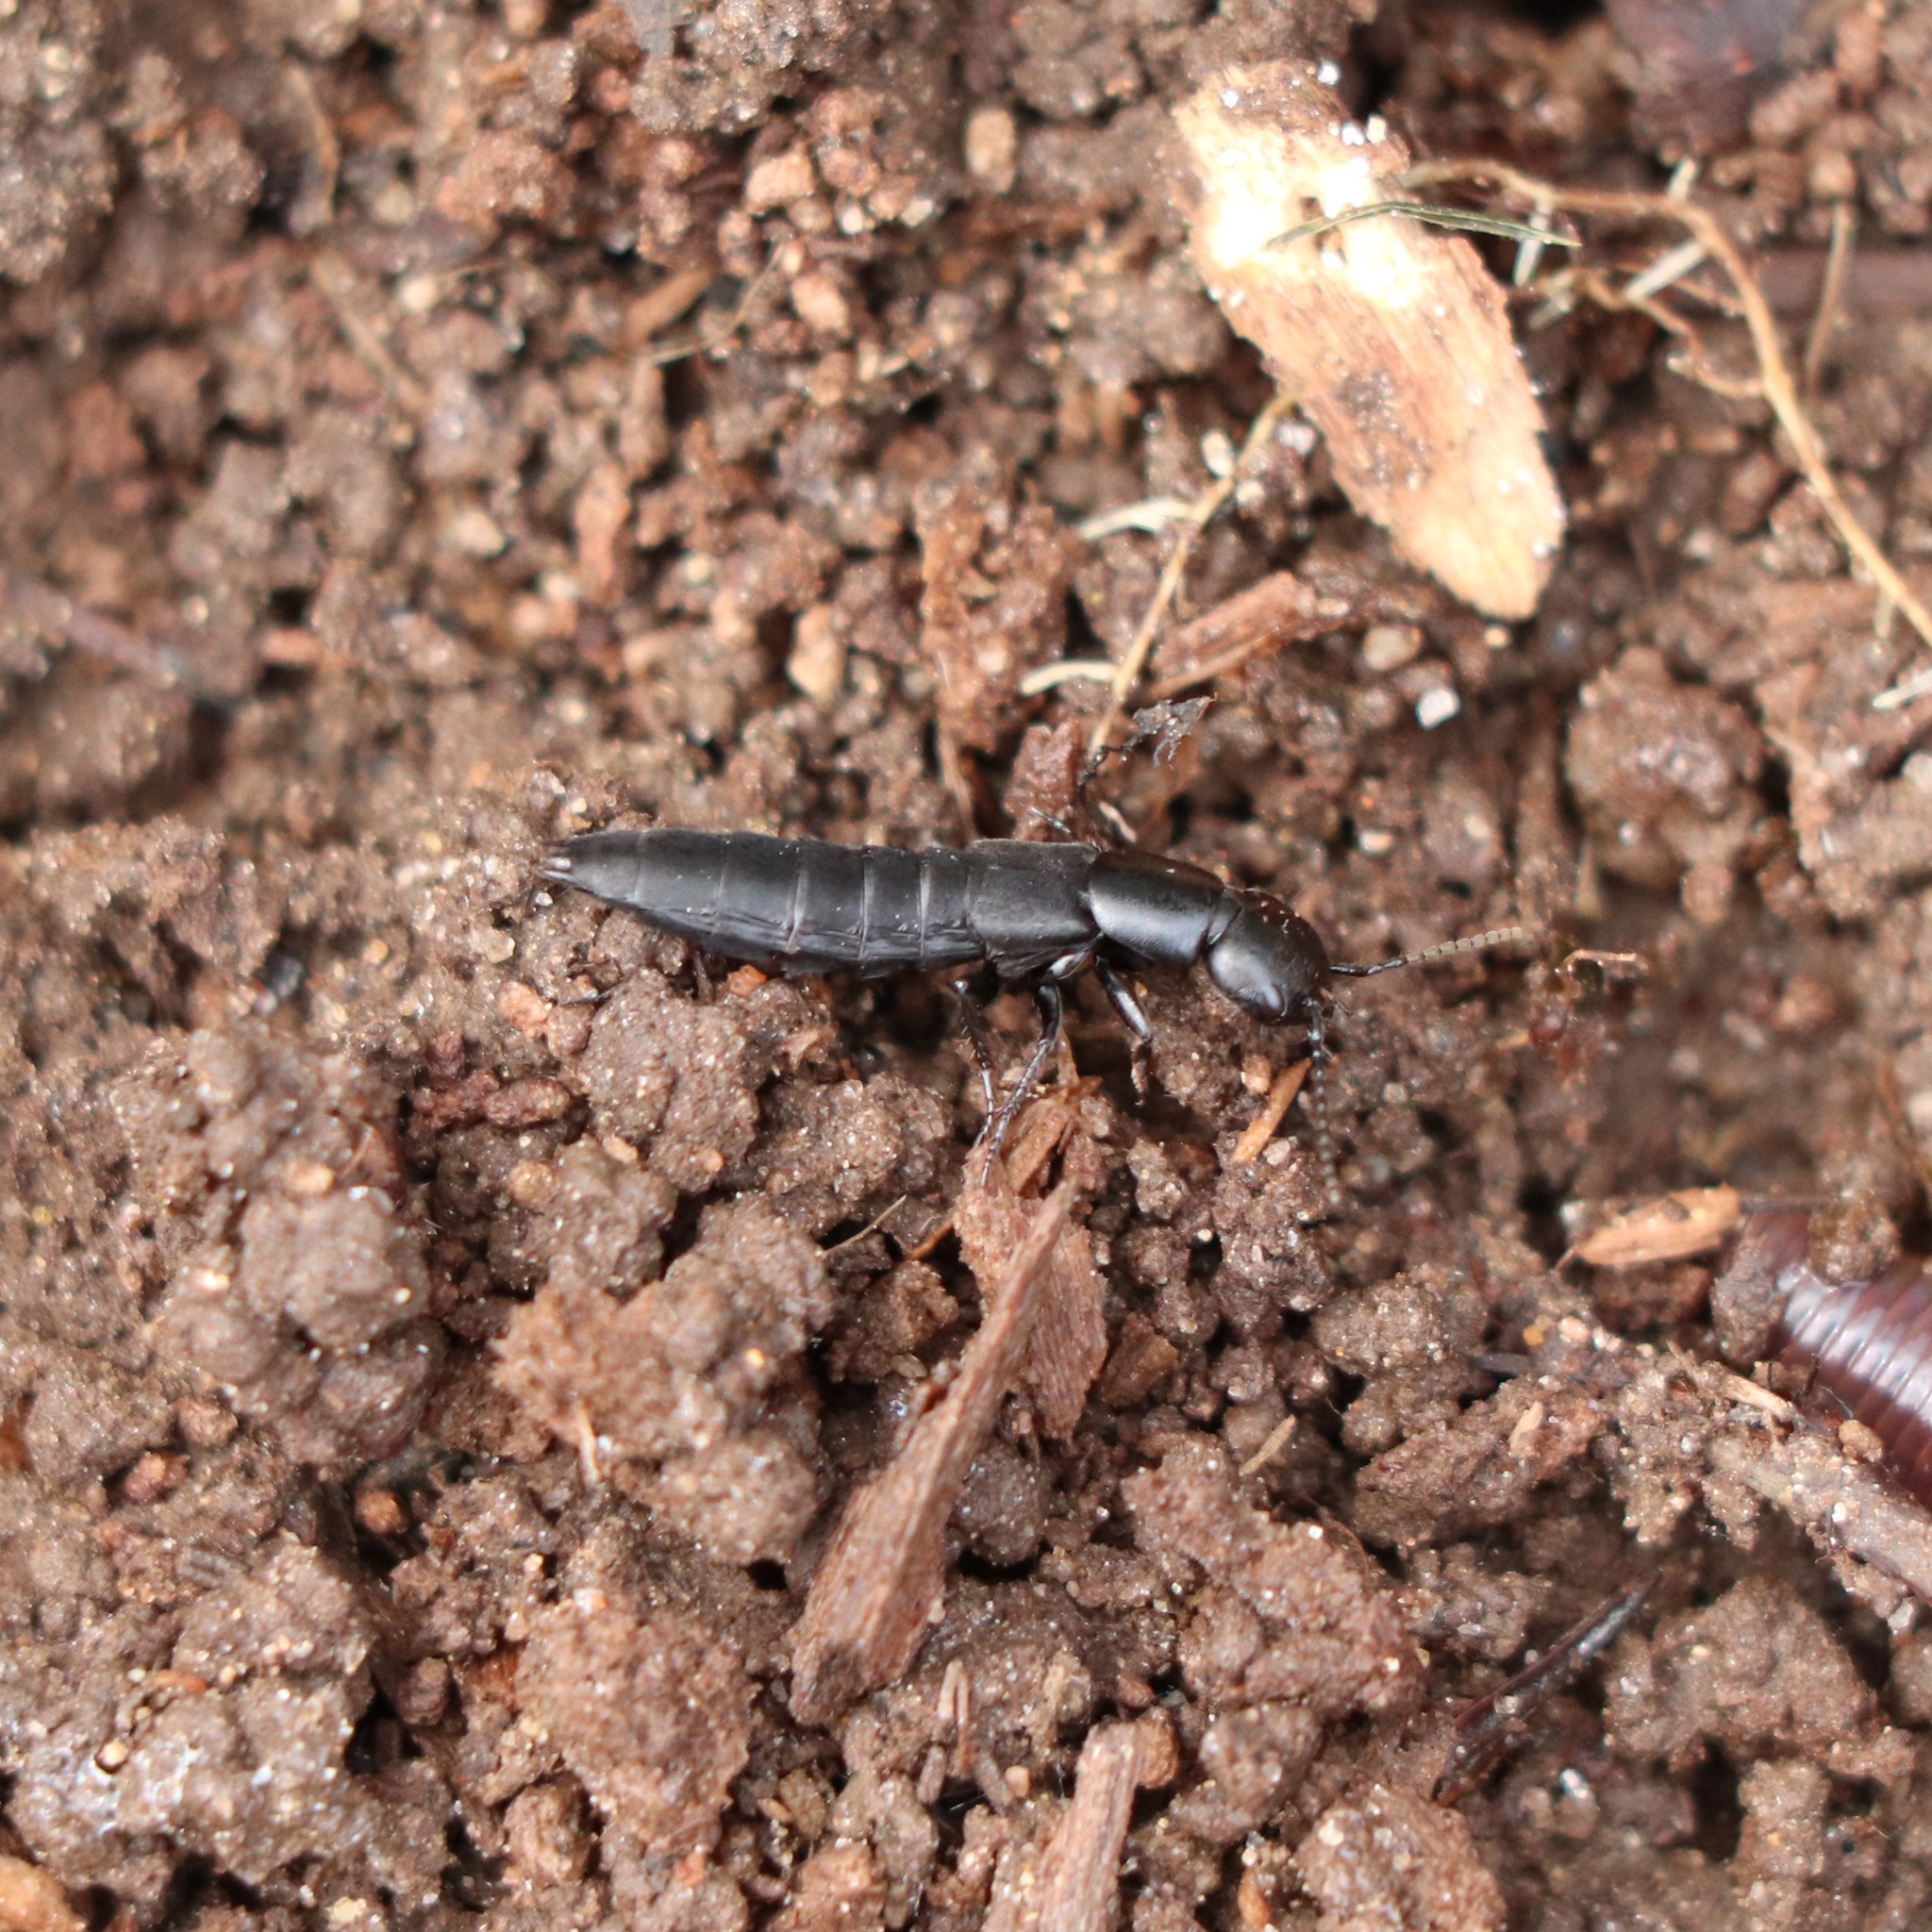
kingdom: Animalia
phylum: Arthropoda
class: Insecta
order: Coleoptera
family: Staphylinidae
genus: Ocypus
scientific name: Ocypus nitens
